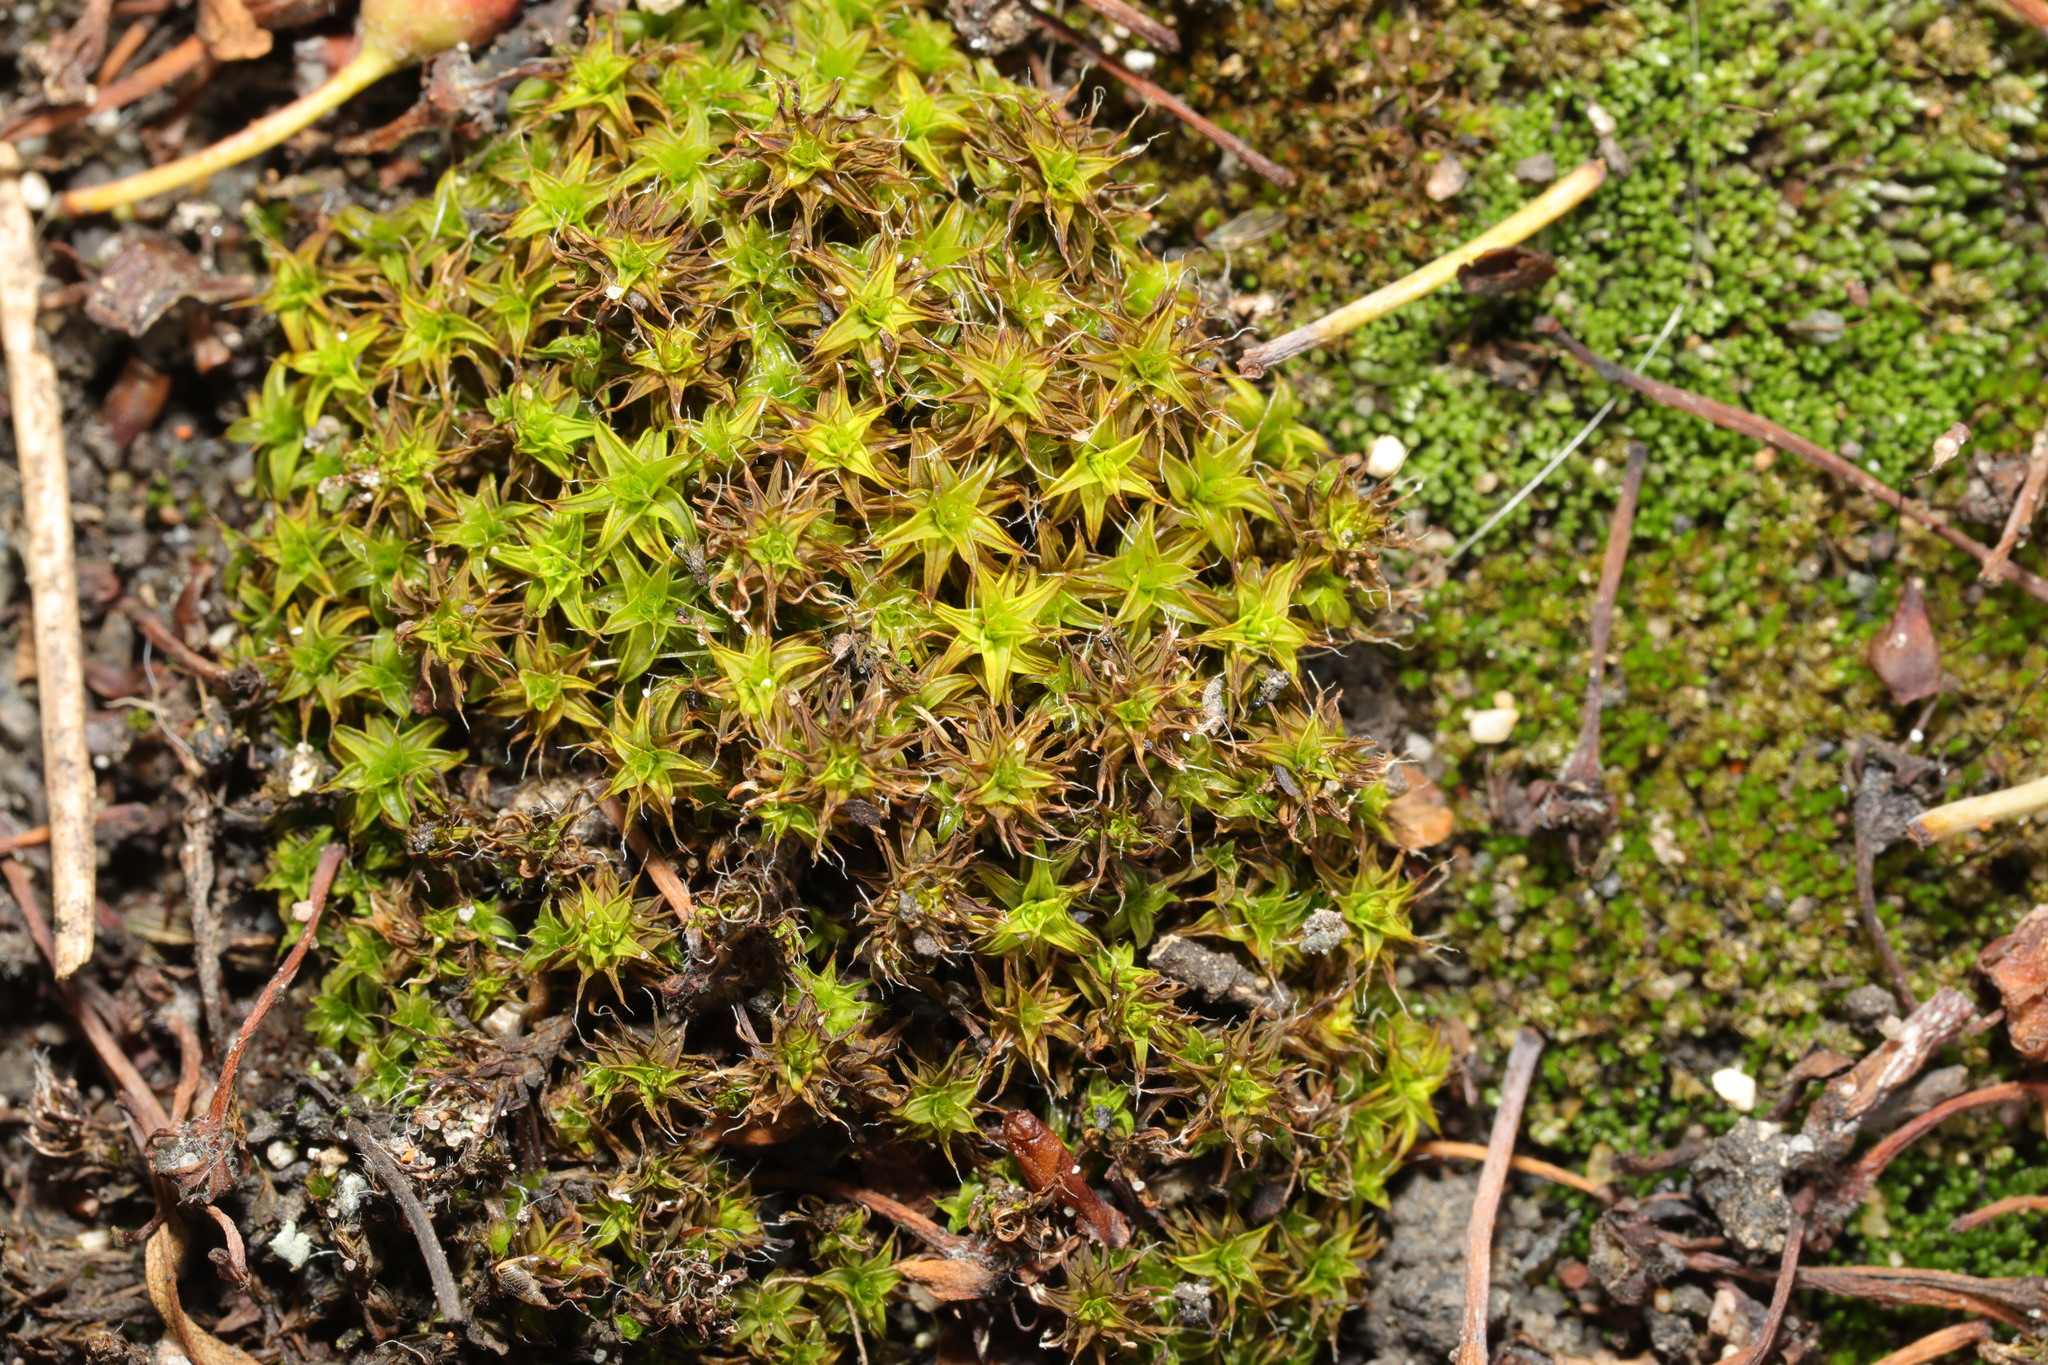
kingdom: Plantae
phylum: Bryophyta
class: Bryopsida
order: Pottiales
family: Pottiaceae
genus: Syntrichia
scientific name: Syntrichia ruralis
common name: Sidewalk screw moss
